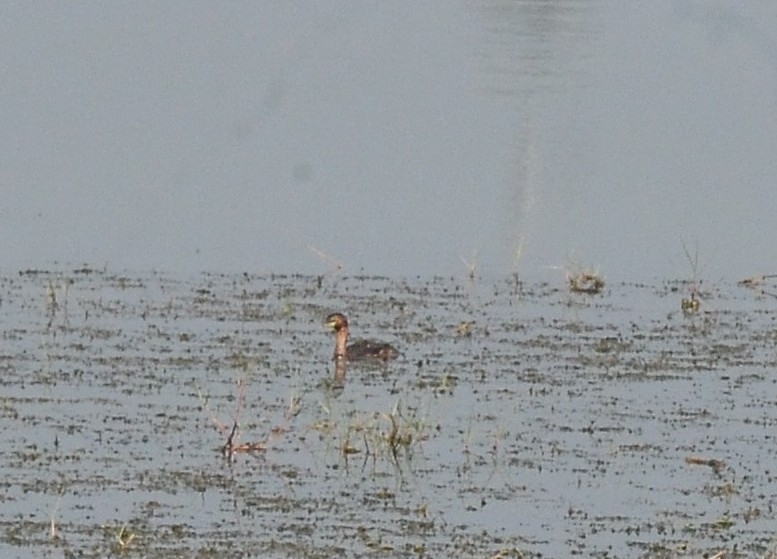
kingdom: Animalia
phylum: Chordata
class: Aves
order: Podicipediformes
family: Podicipedidae
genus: Tachybaptus
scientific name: Tachybaptus ruficollis
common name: Little grebe
